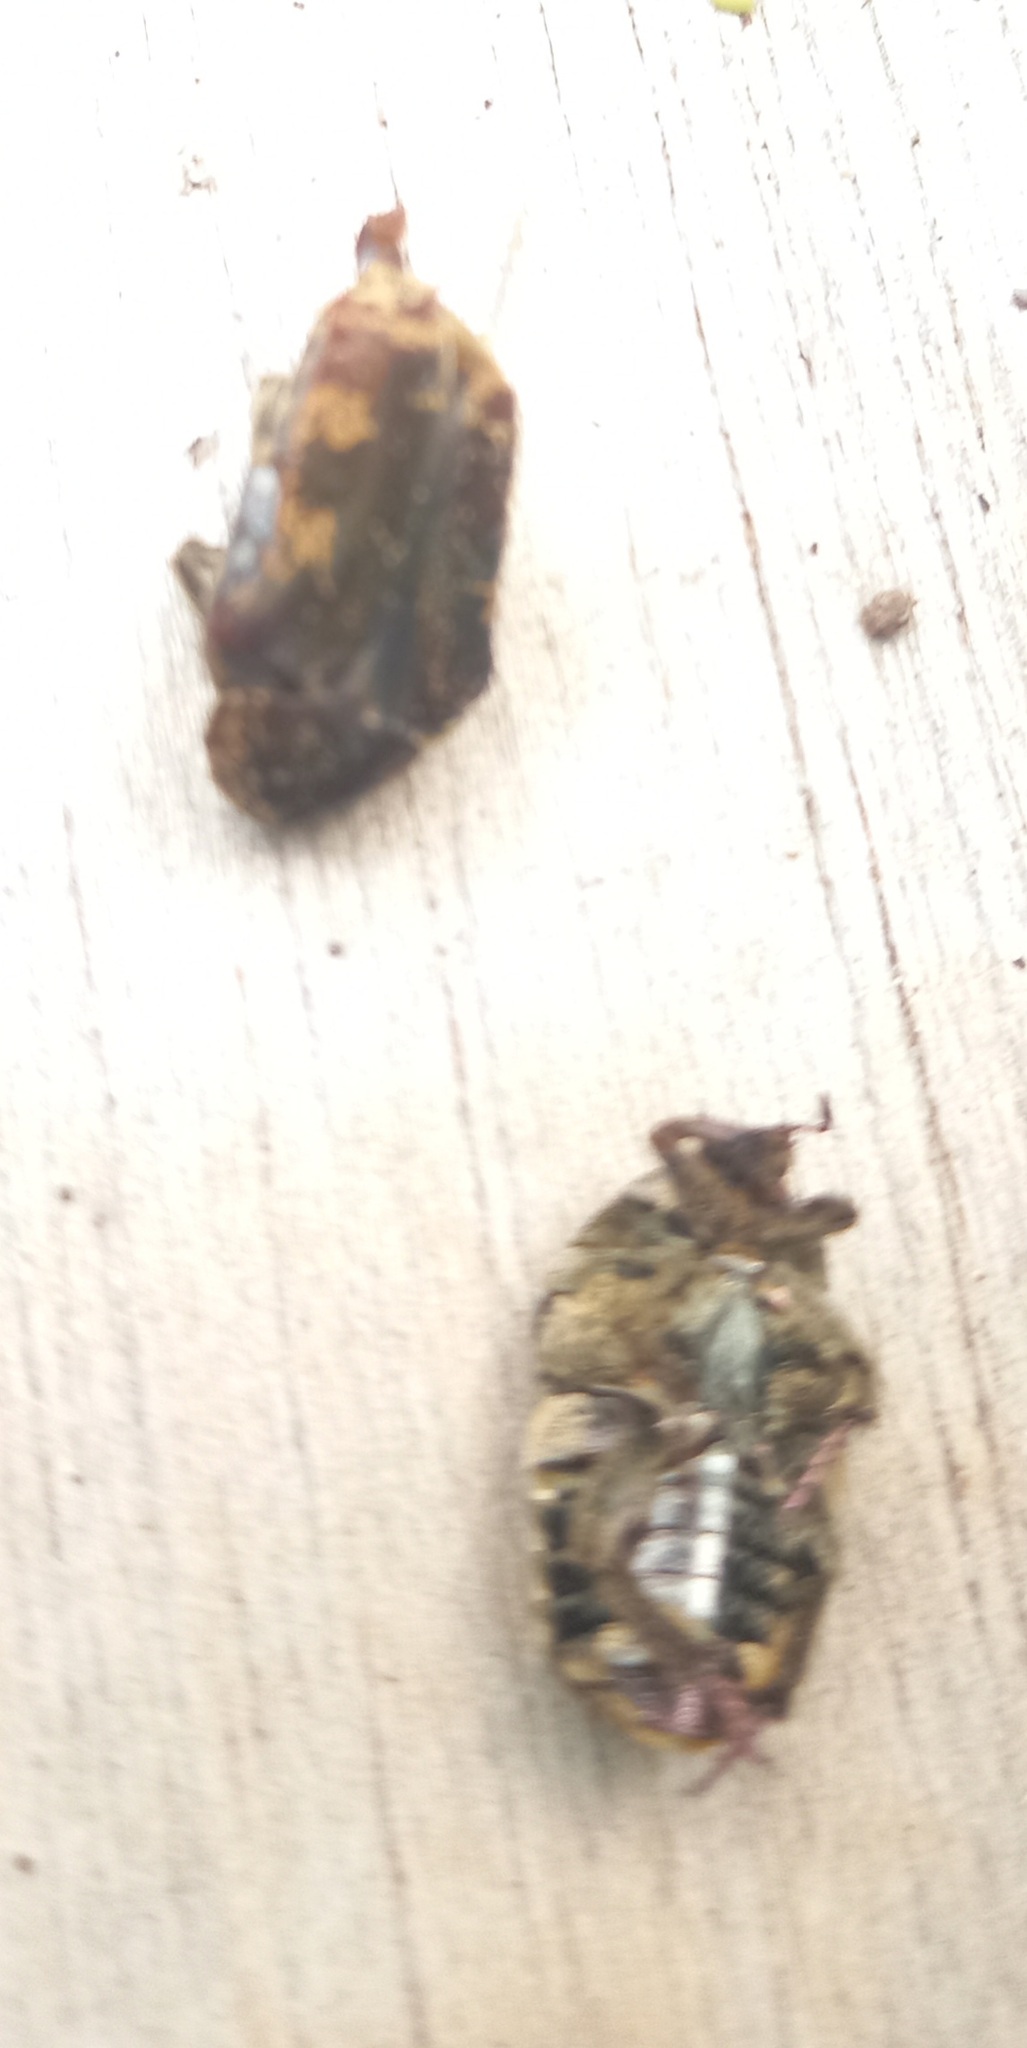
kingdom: Animalia
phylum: Arthropoda
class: Insecta
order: Coleoptera
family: Scarabaeidae
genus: Protaetia
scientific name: Protaetia fusca
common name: Mango flower beetle
